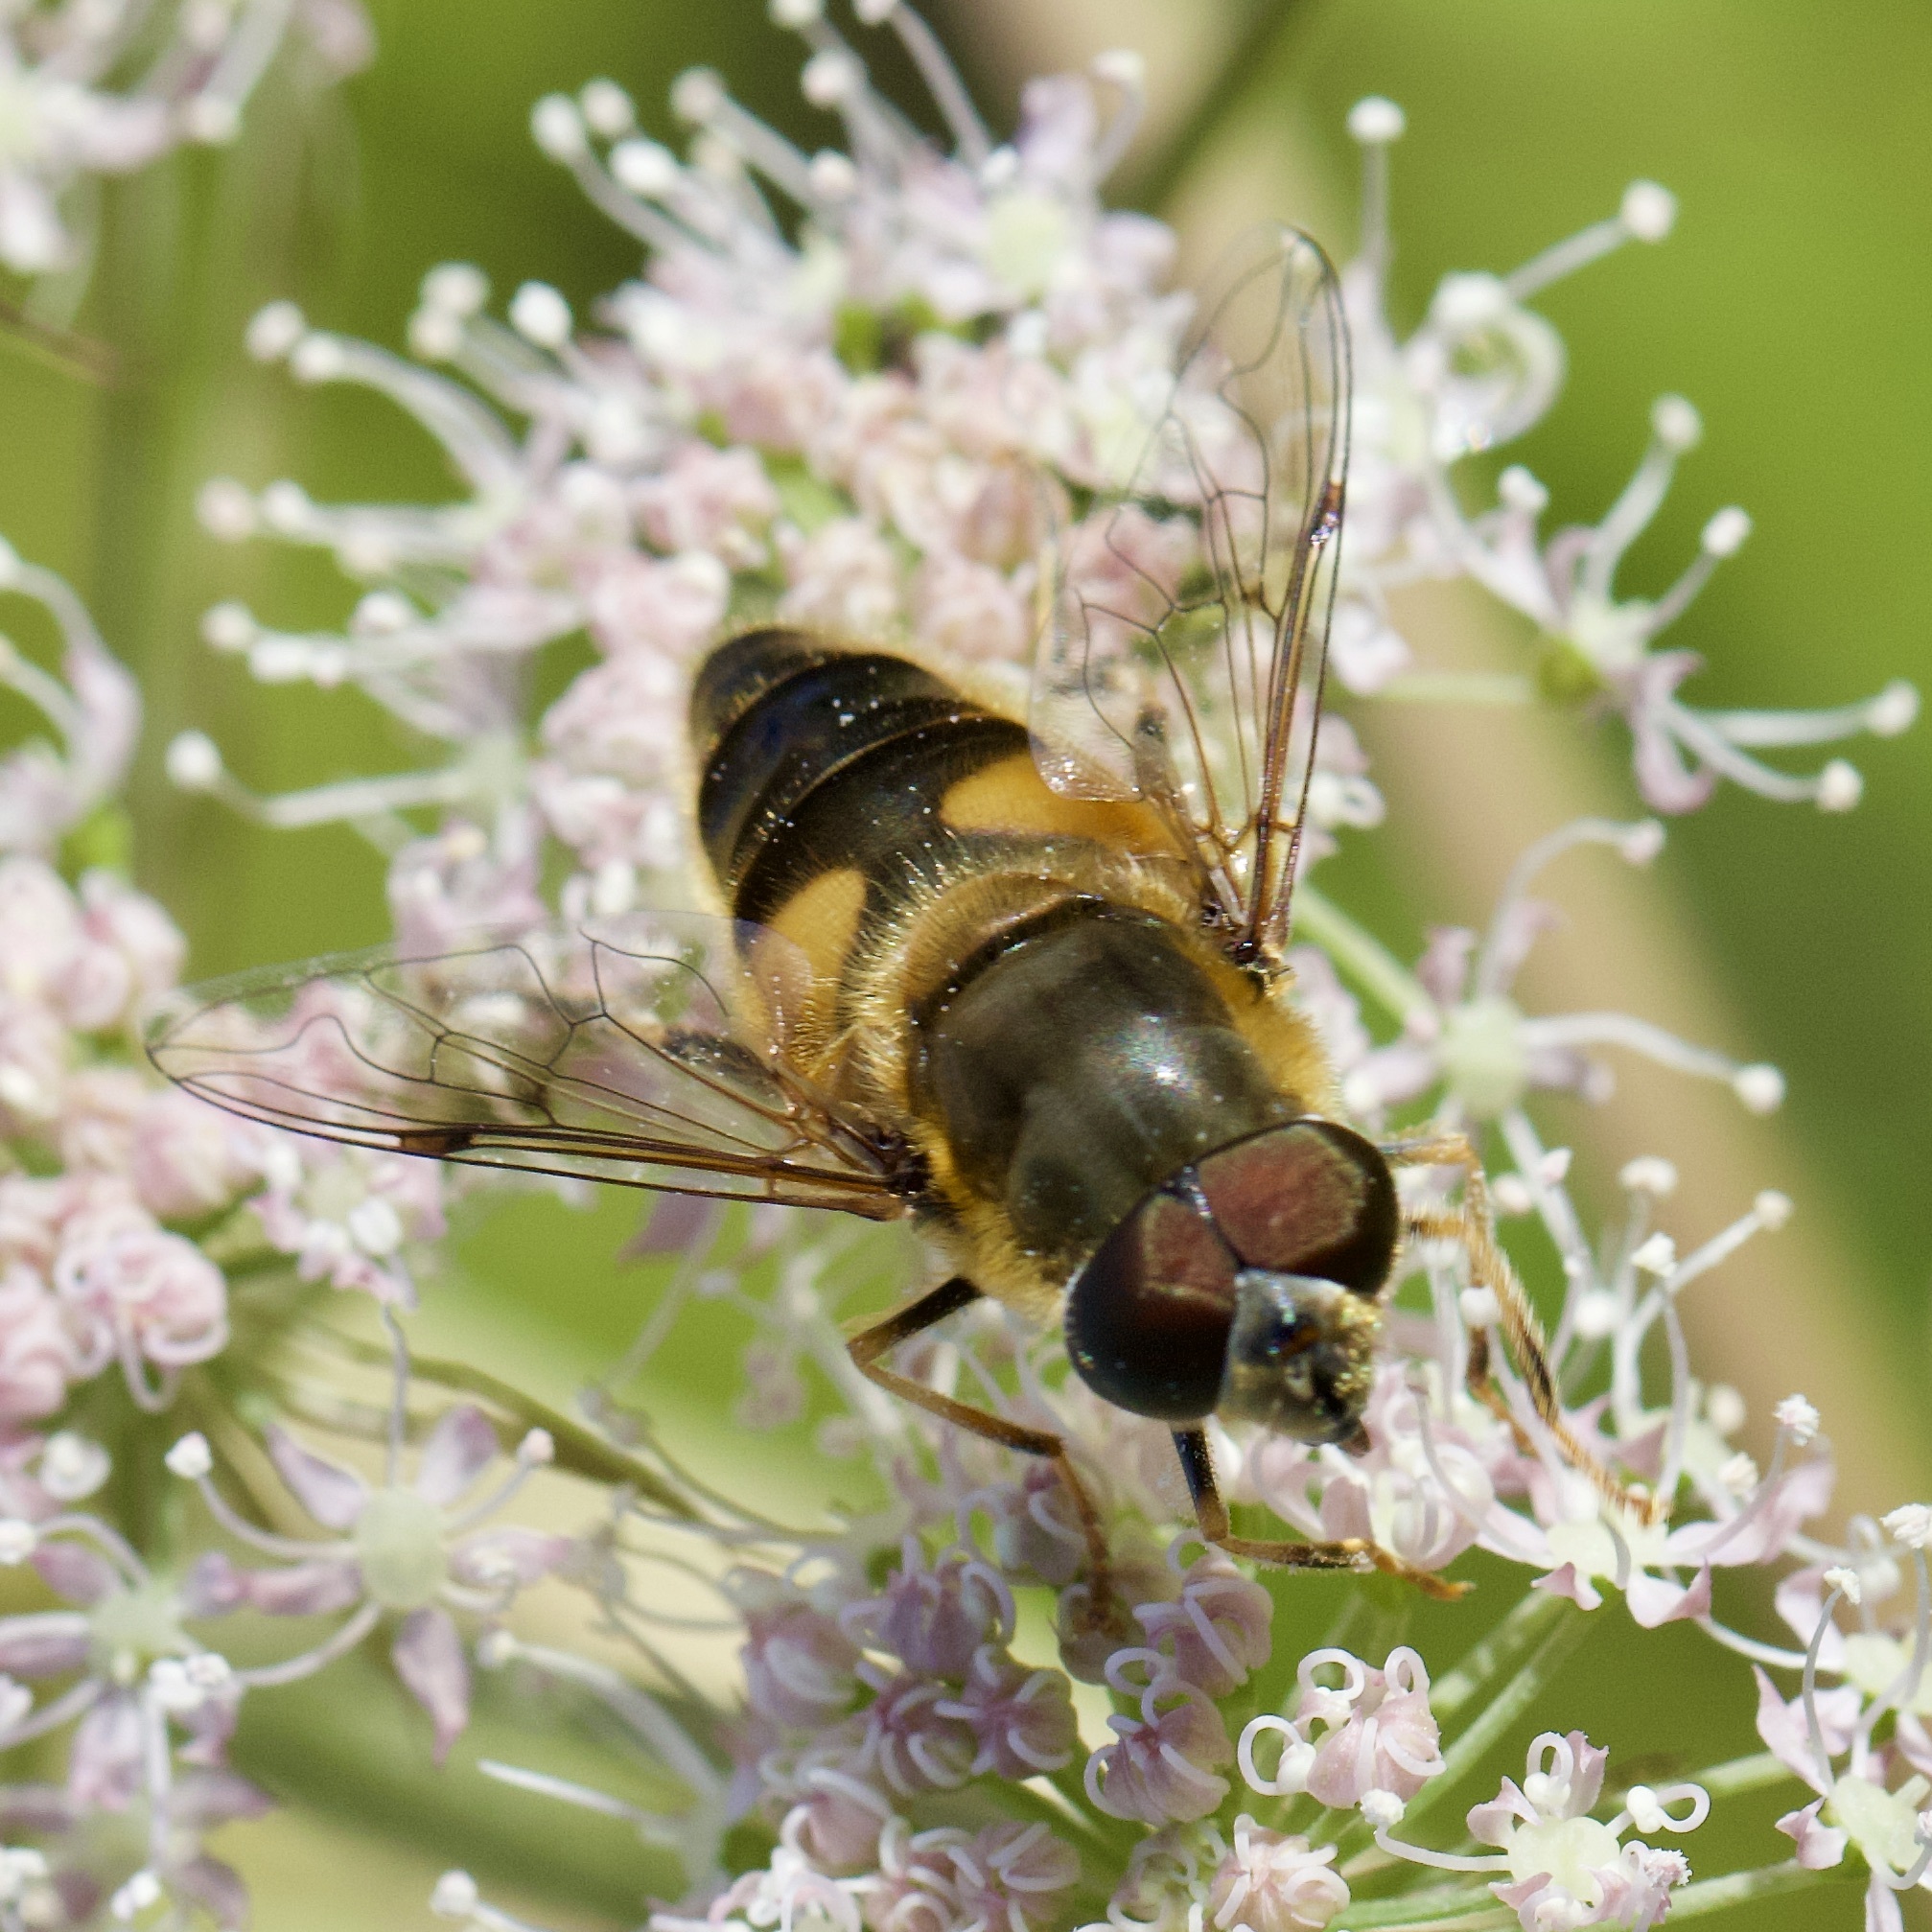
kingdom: Animalia
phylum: Arthropoda
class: Insecta
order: Diptera
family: Syrphidae
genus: Eristalis
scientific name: Eristalis pertinax
